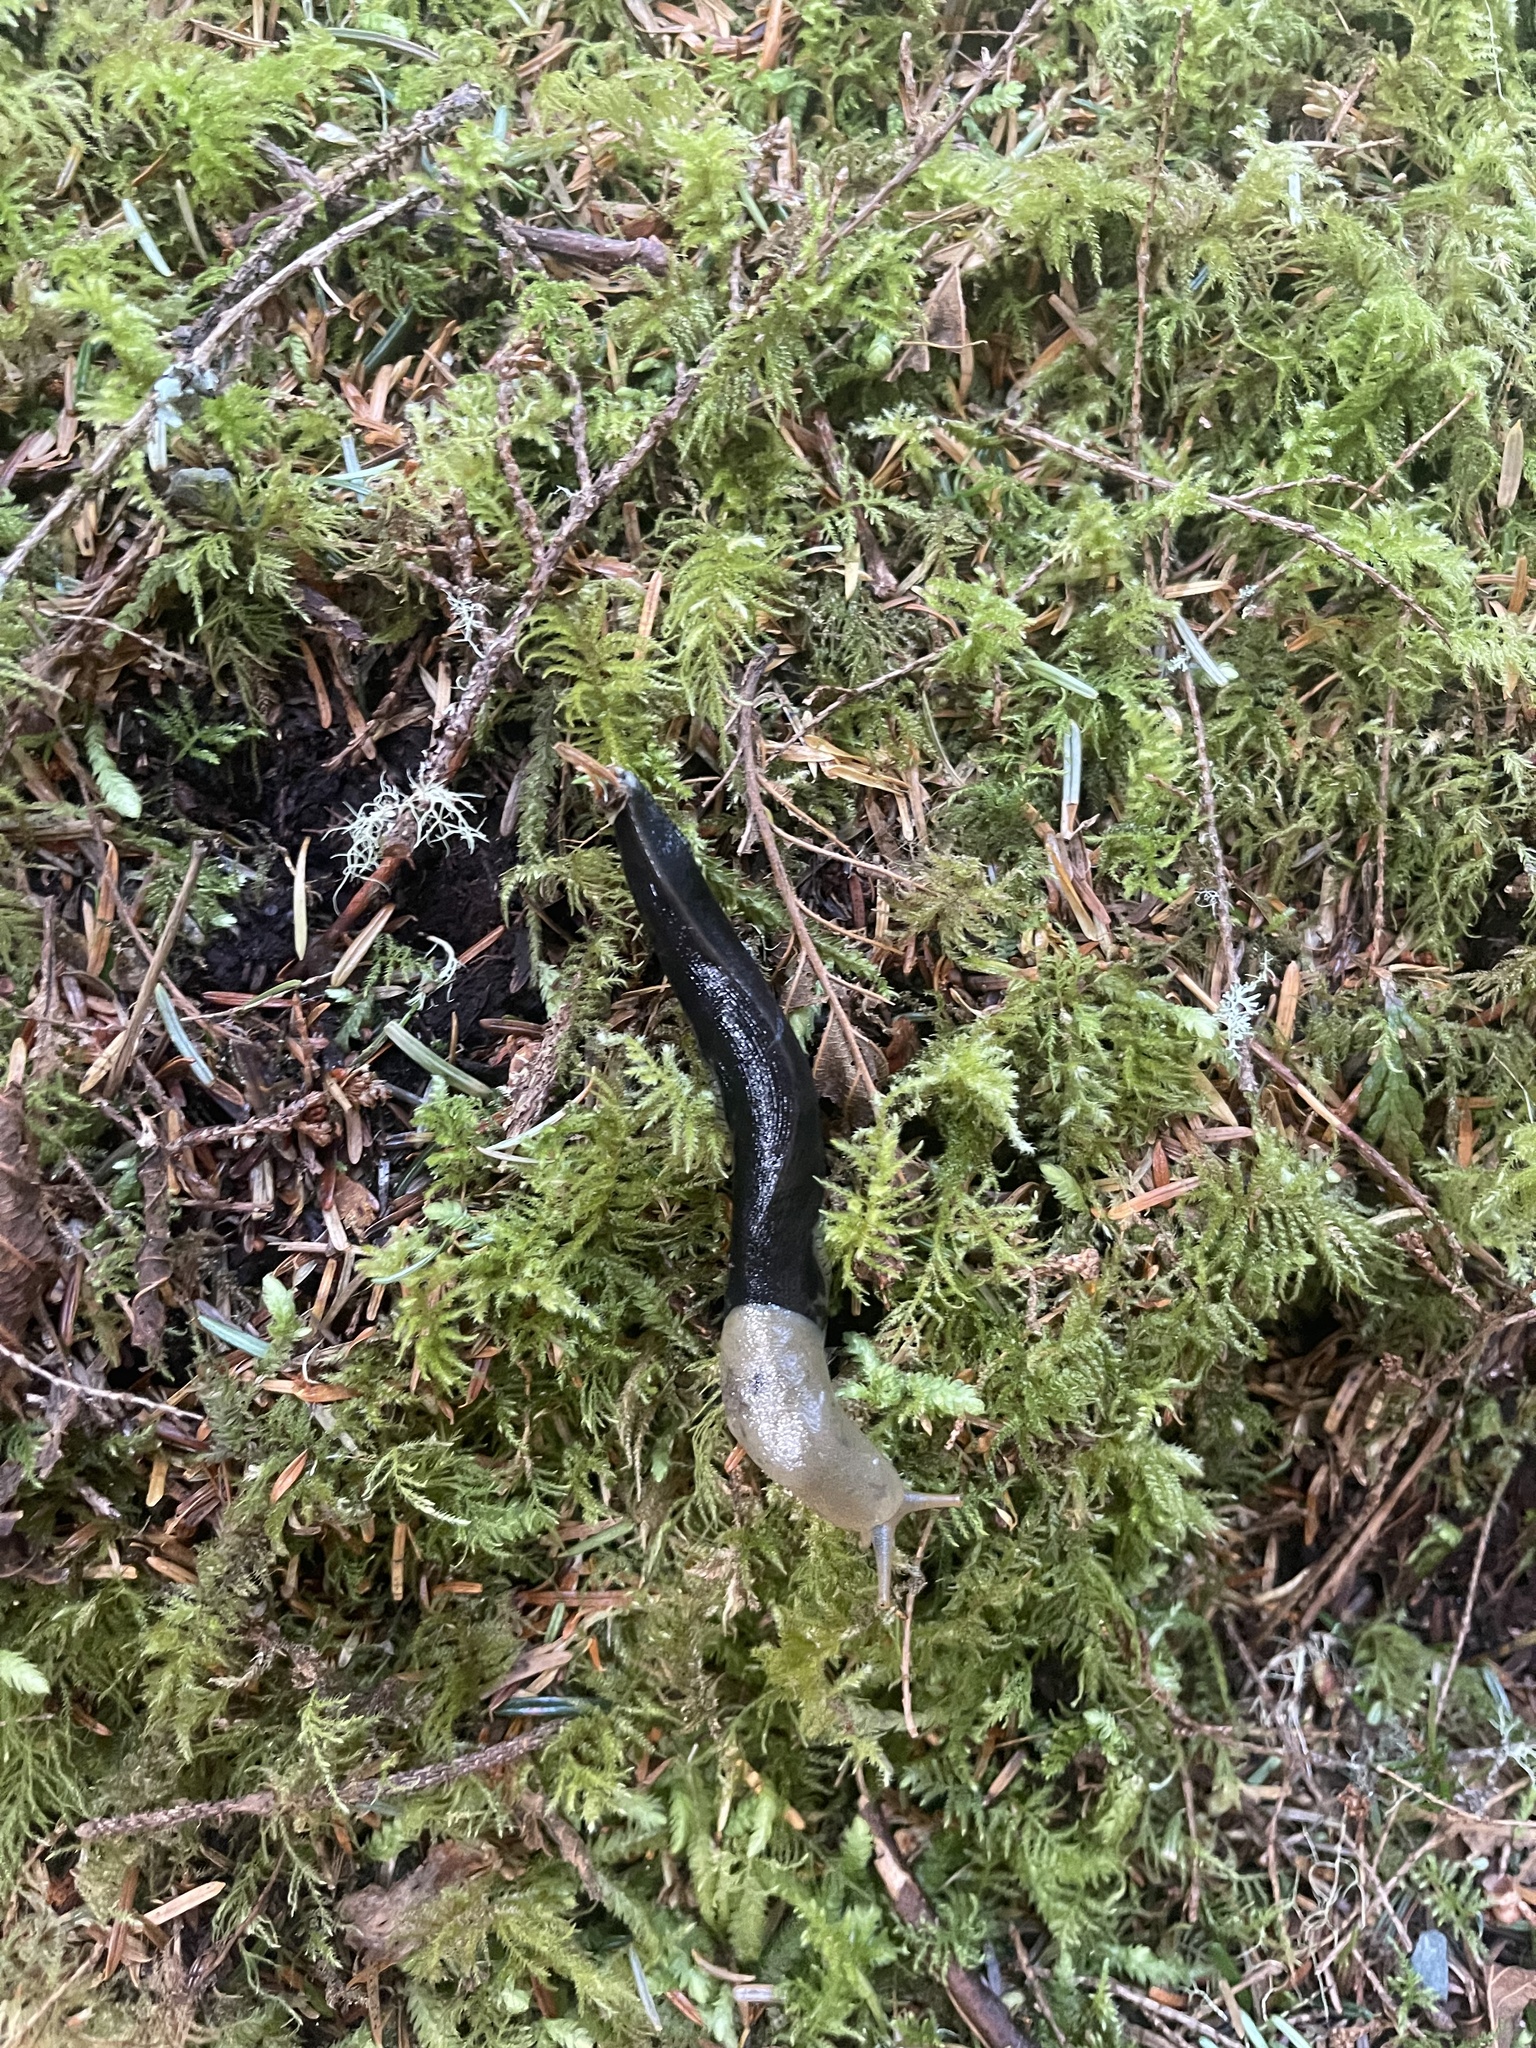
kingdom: Animalia
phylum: Mollusca
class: Gastropoda
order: Stylommatophora
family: Ariolimacidae
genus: Ariolimax
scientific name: Ariolimax columbianus
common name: Pacific banana slug
